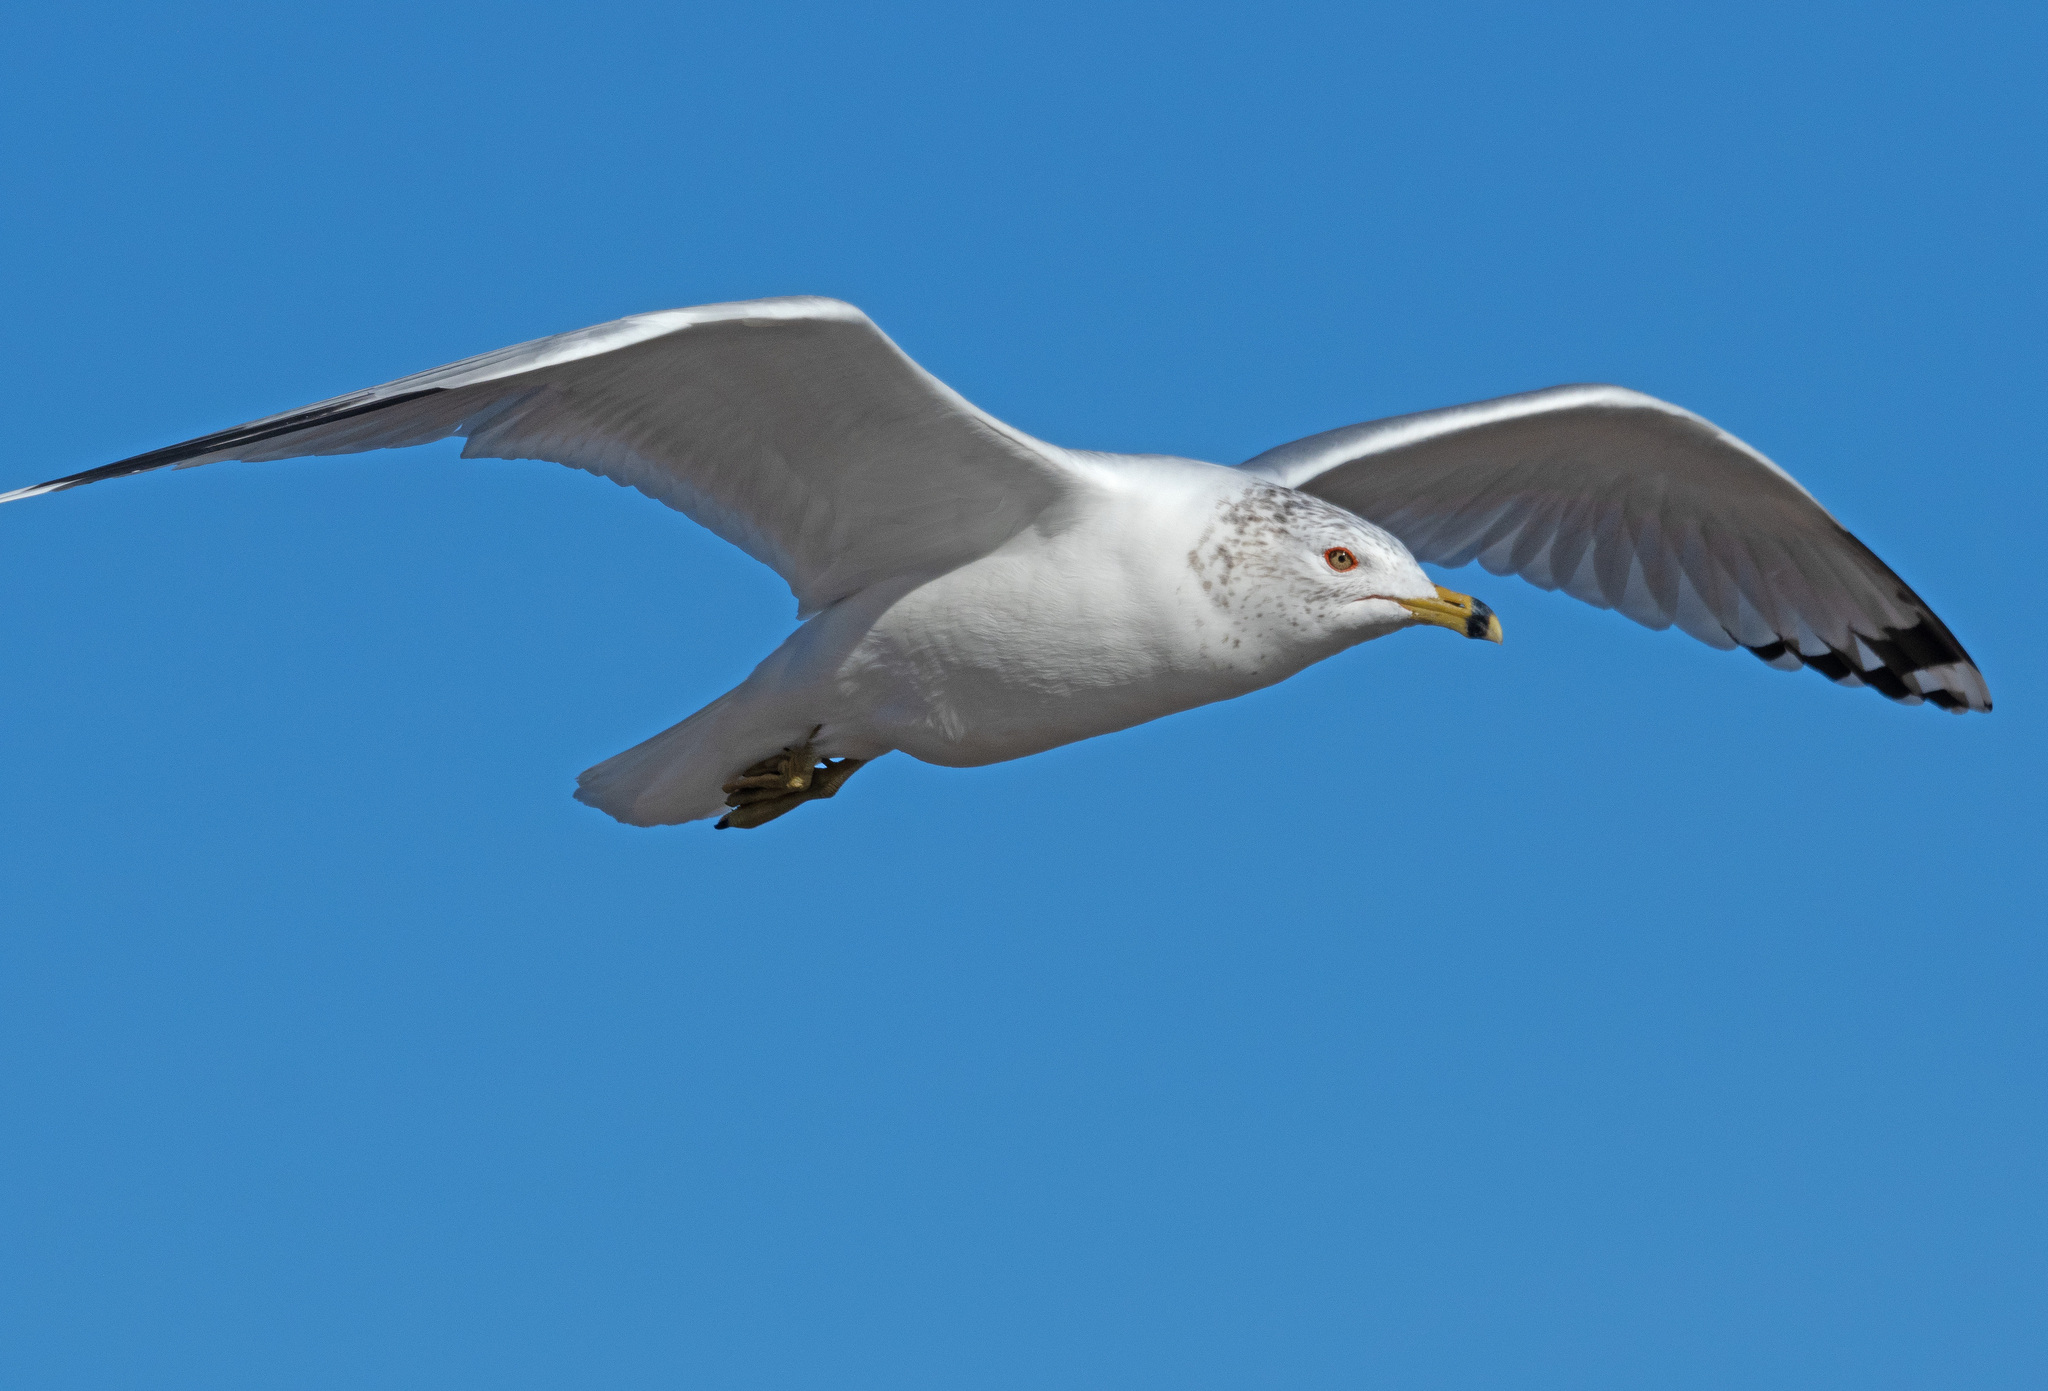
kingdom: Animalia
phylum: Chordata
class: Aves
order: Charadriiformes
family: Laridae
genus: Larus
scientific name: Larus delawarensis
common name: Ring-billed gull
